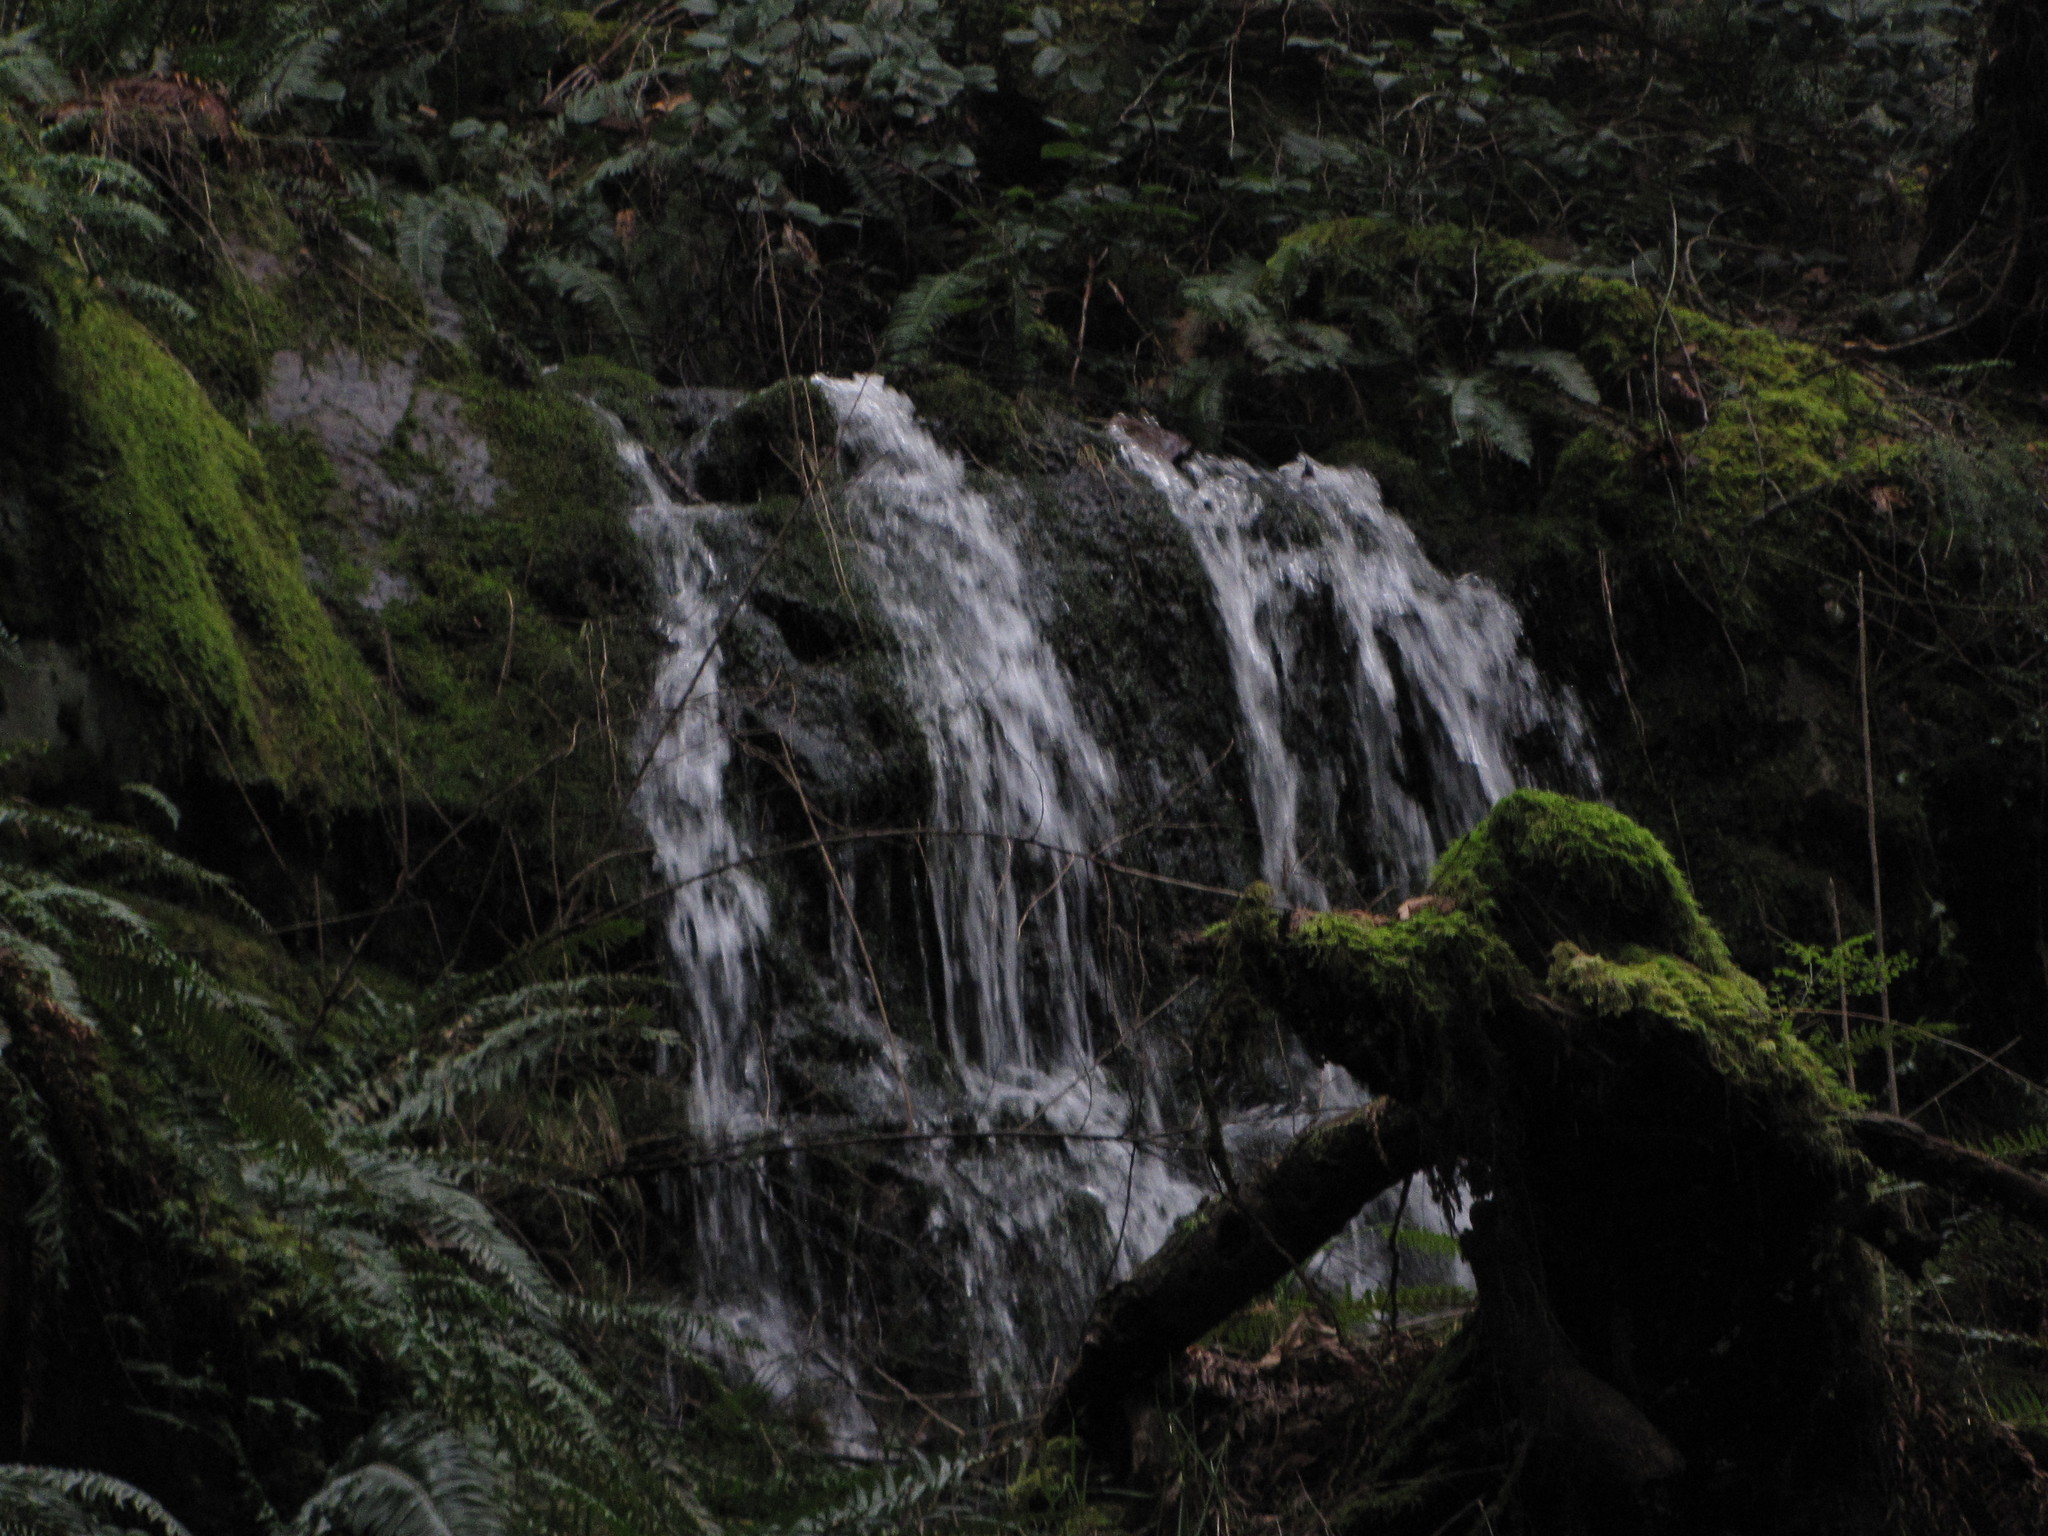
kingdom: Plantae
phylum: Tracheophyta
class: Magnoliopsida
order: Ericales
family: Ericaceae
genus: Gaultheria
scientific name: Gaultheria shallon
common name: Shallon
